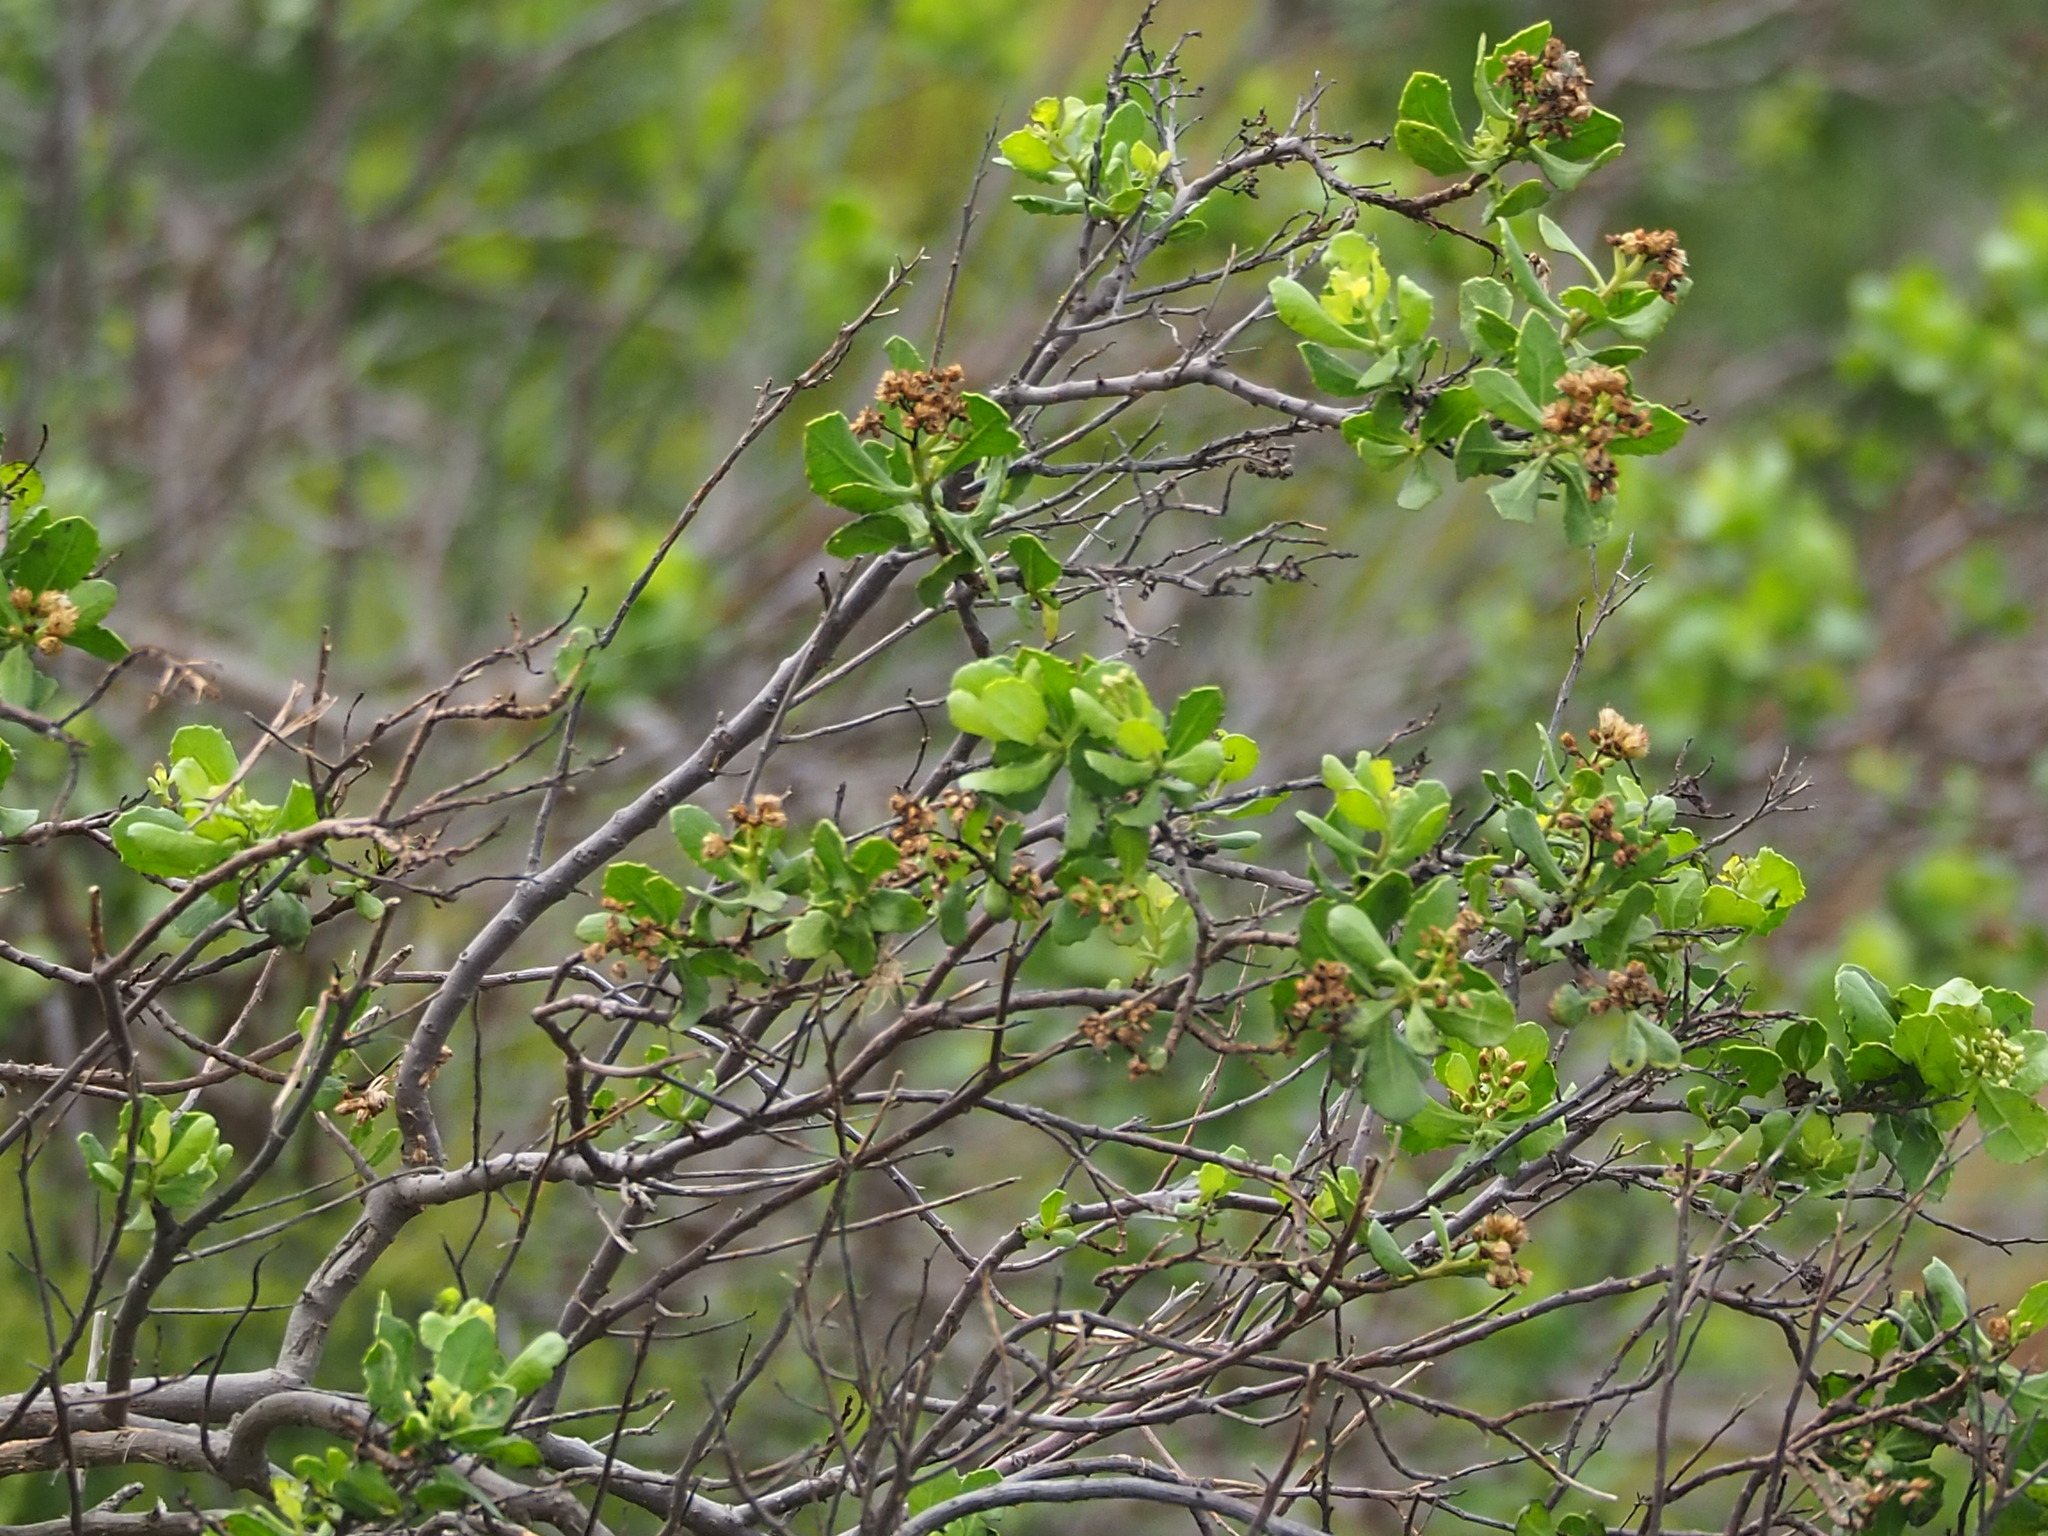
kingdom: Plantae
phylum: Tracheophyta
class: Magnoliopsida
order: Asterales
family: Asteraceae
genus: Pluchea
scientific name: Pluchea indica
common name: Indian fleabane
